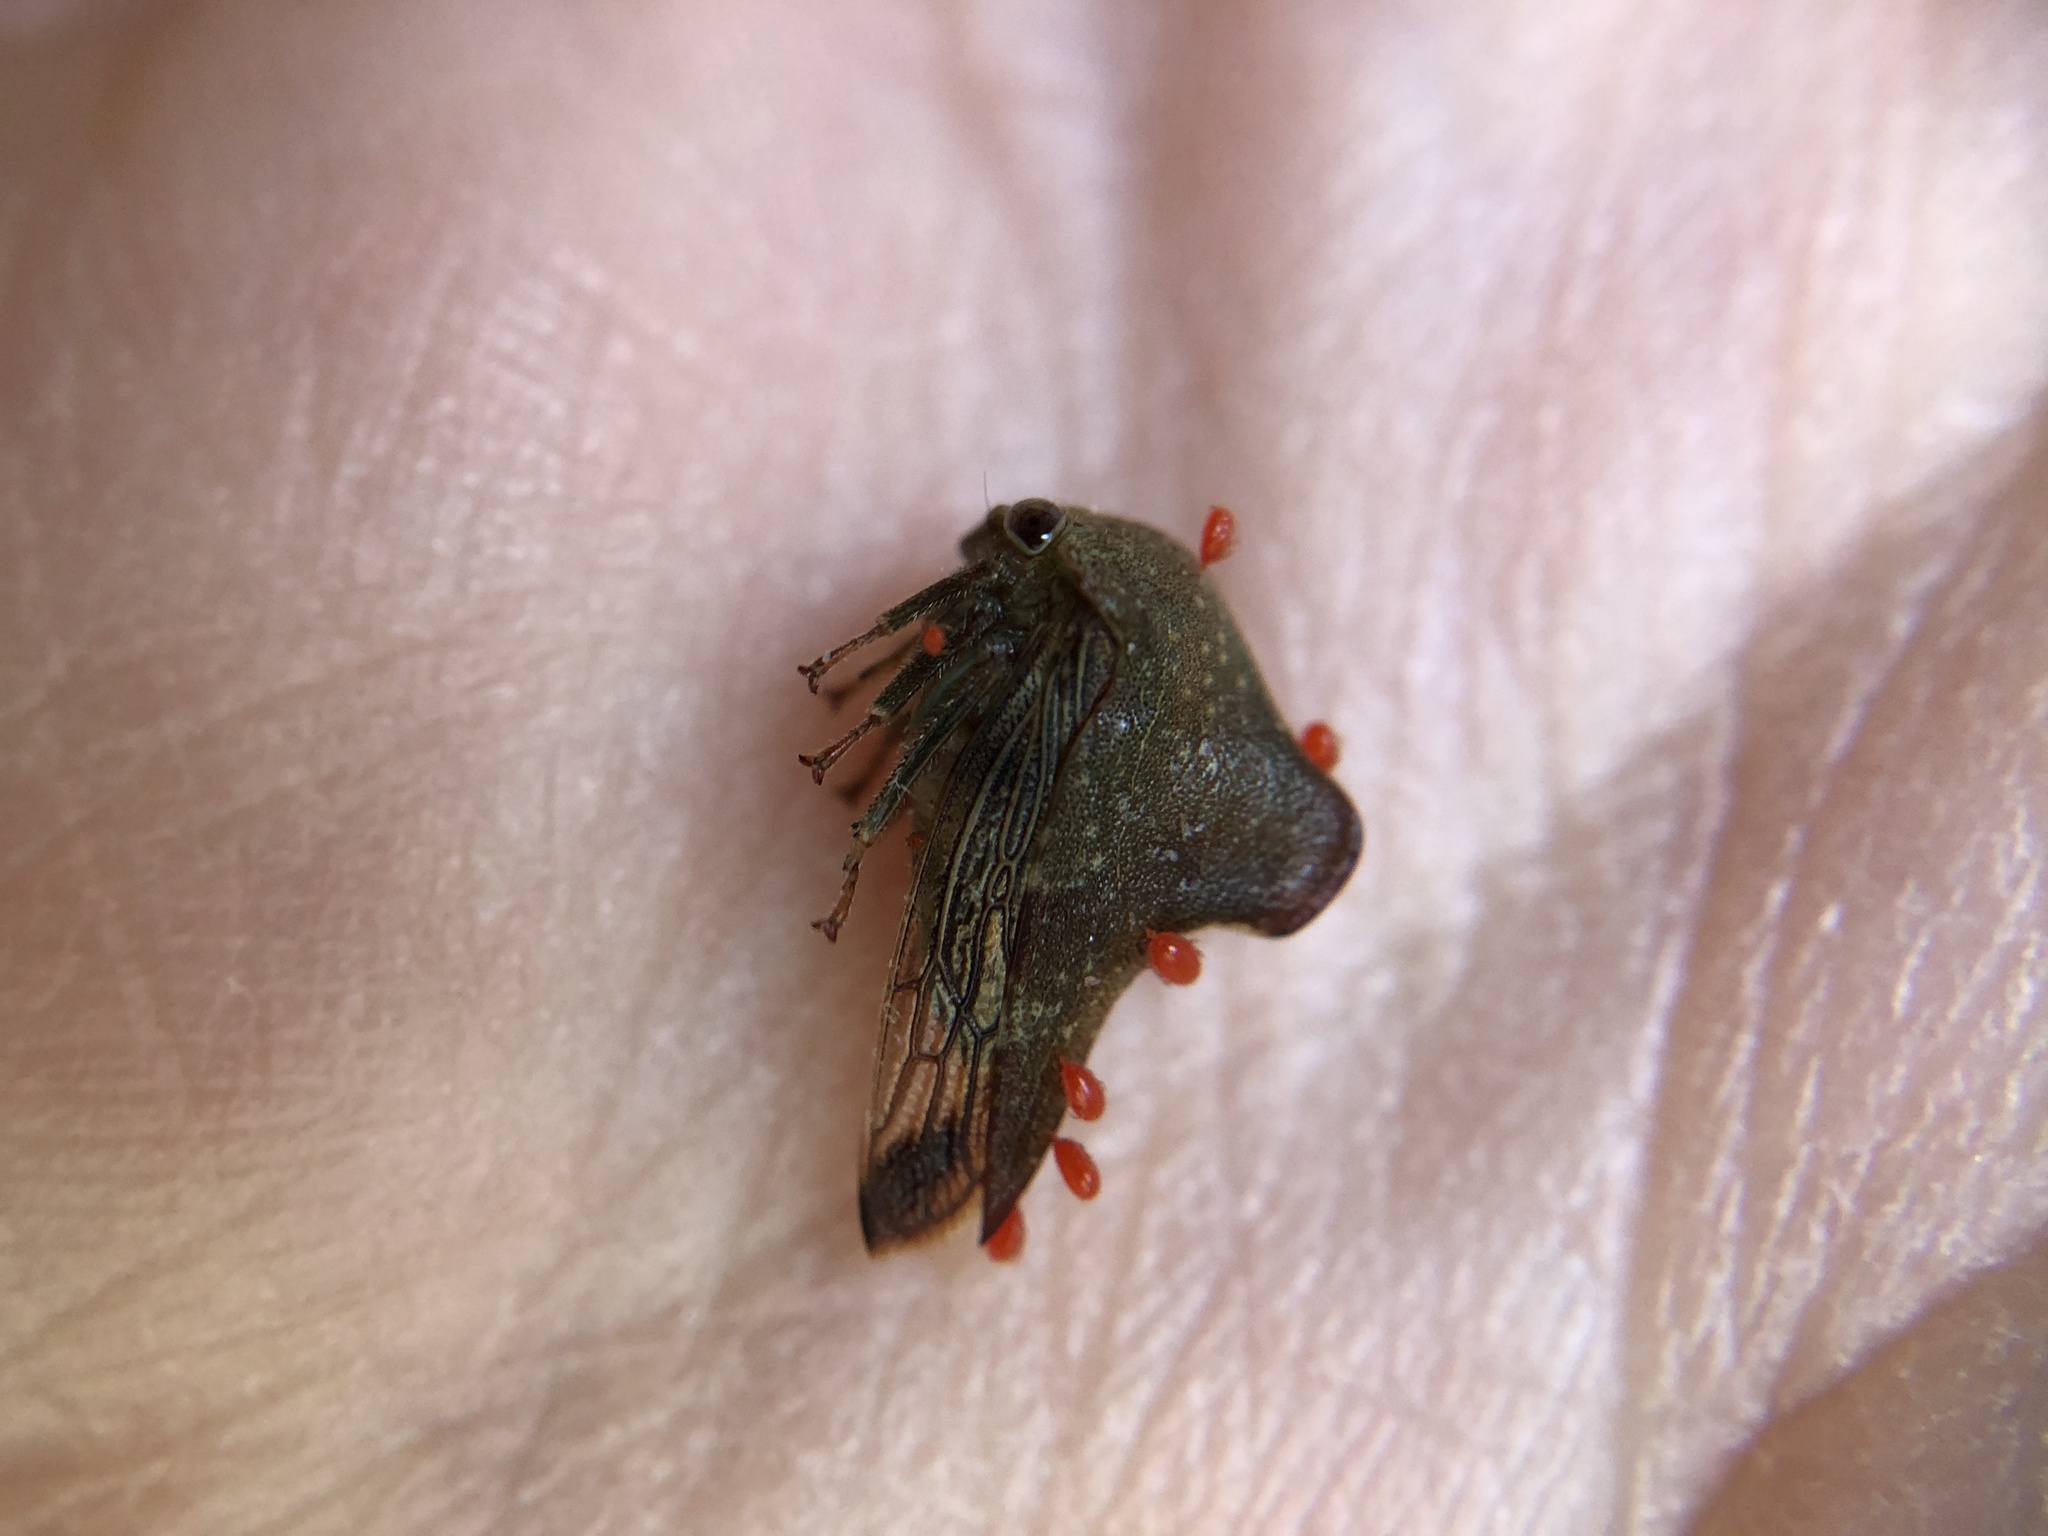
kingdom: Animalia
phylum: Arthropoda
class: Insecta
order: Hemiptera
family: Membracidae
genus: Telamona
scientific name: Telamona monticola
